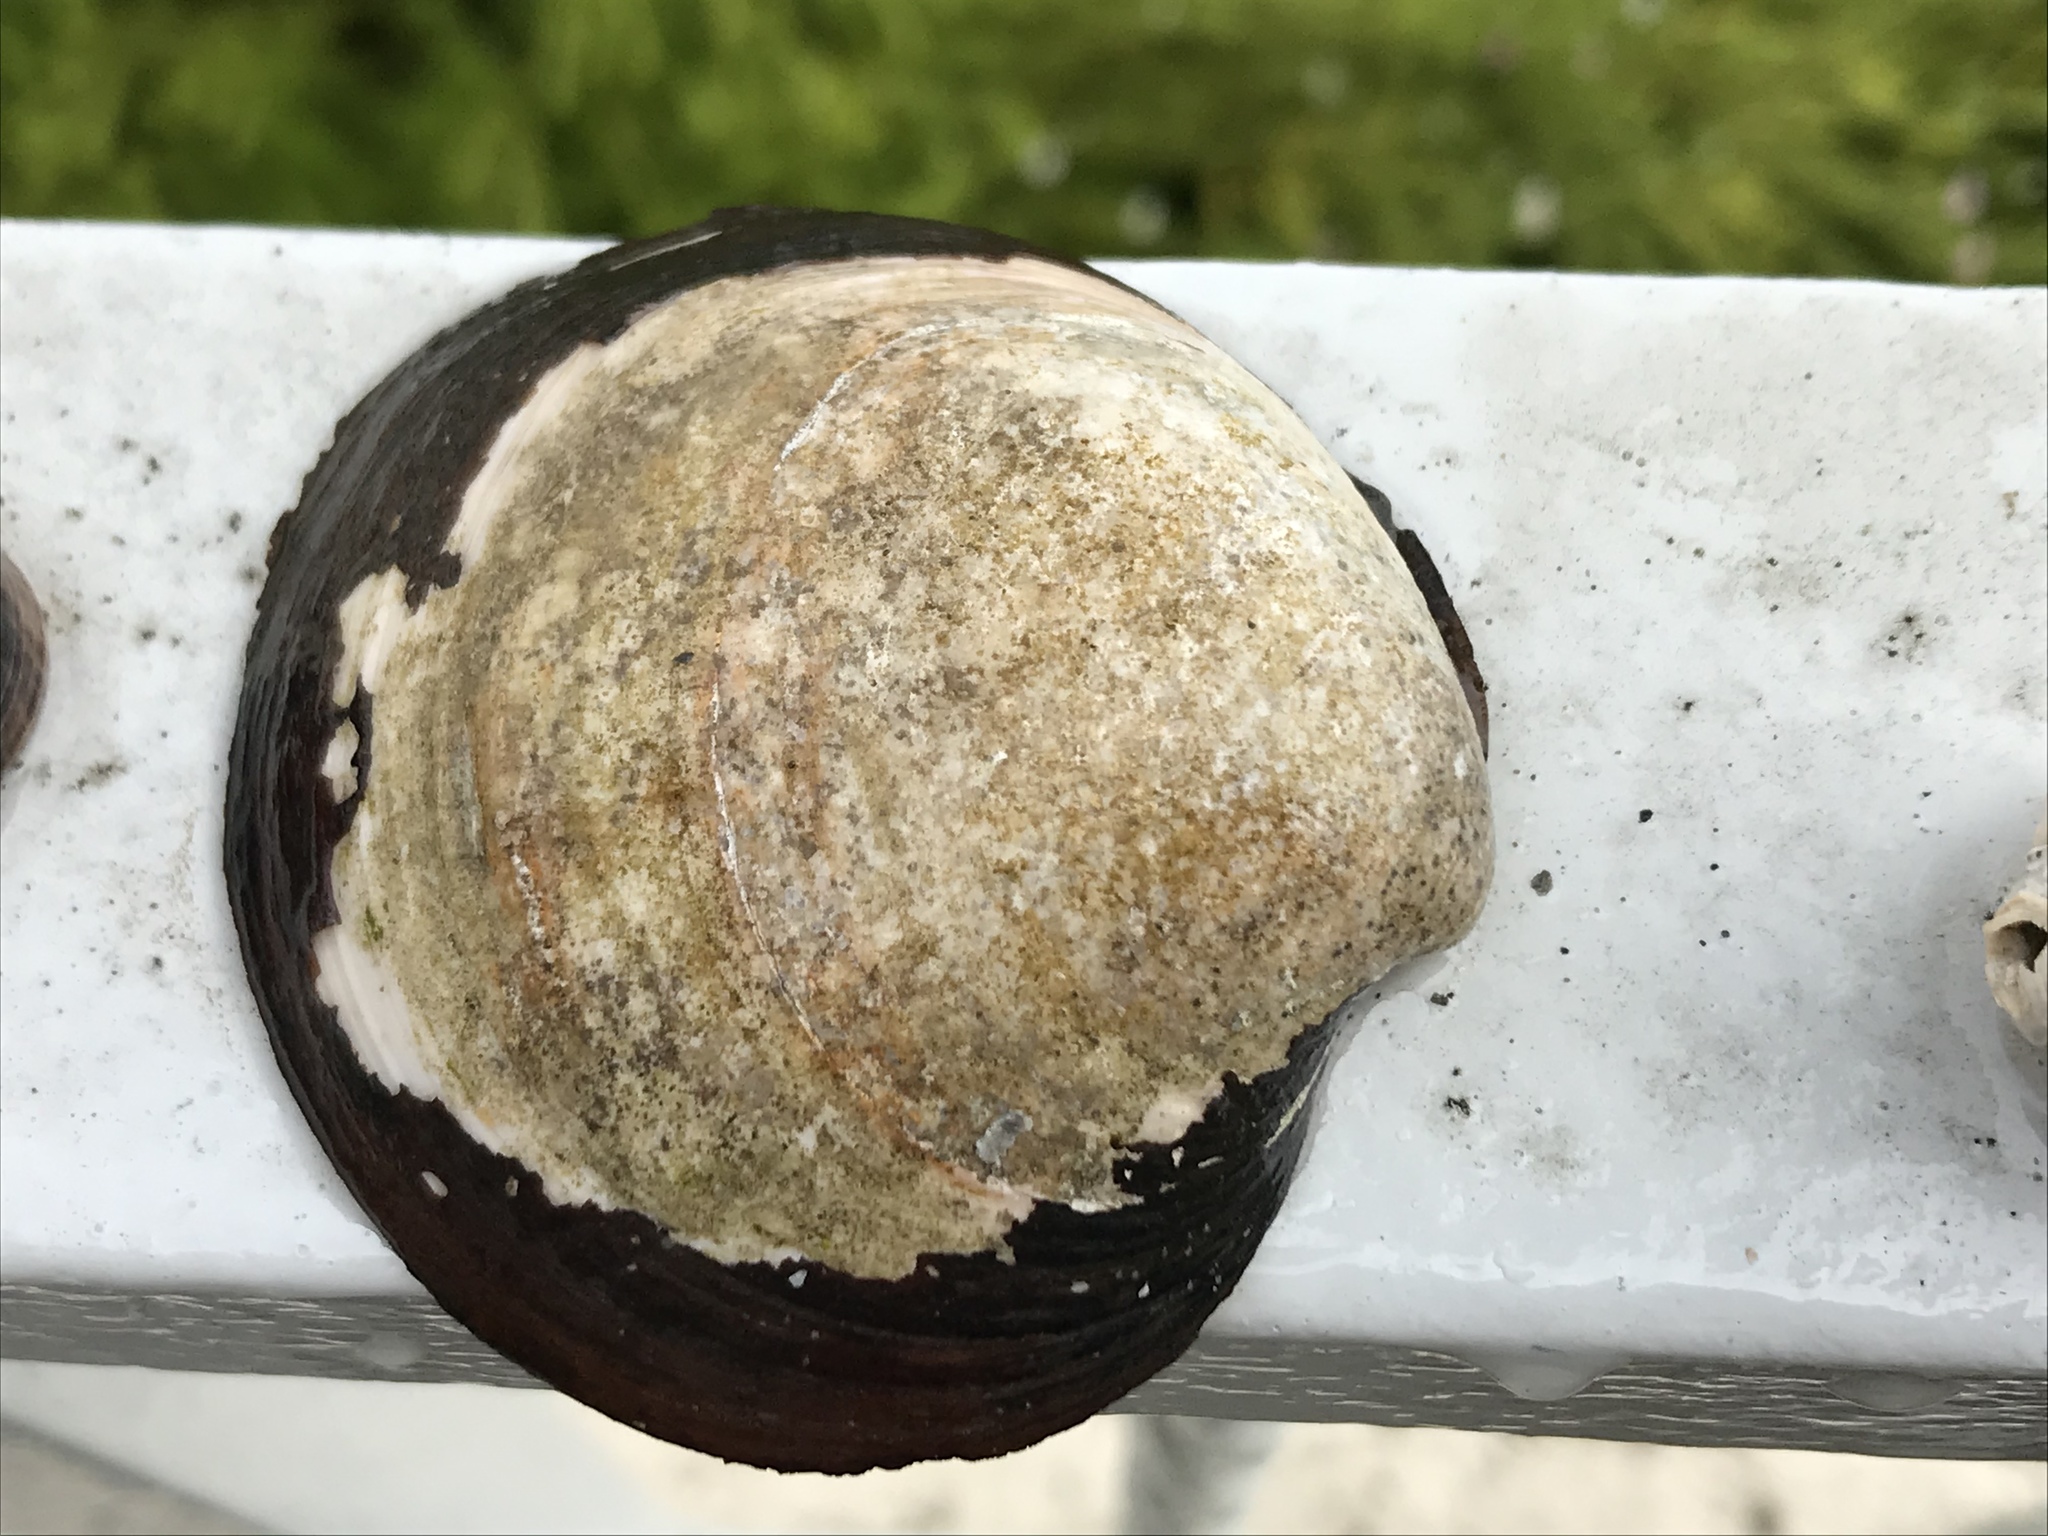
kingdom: Animalia
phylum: Mollusca
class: Bivalvia
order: Venerida
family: Arcticidae
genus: Arctica
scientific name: Arctica islandica
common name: Icelandic cyprine
